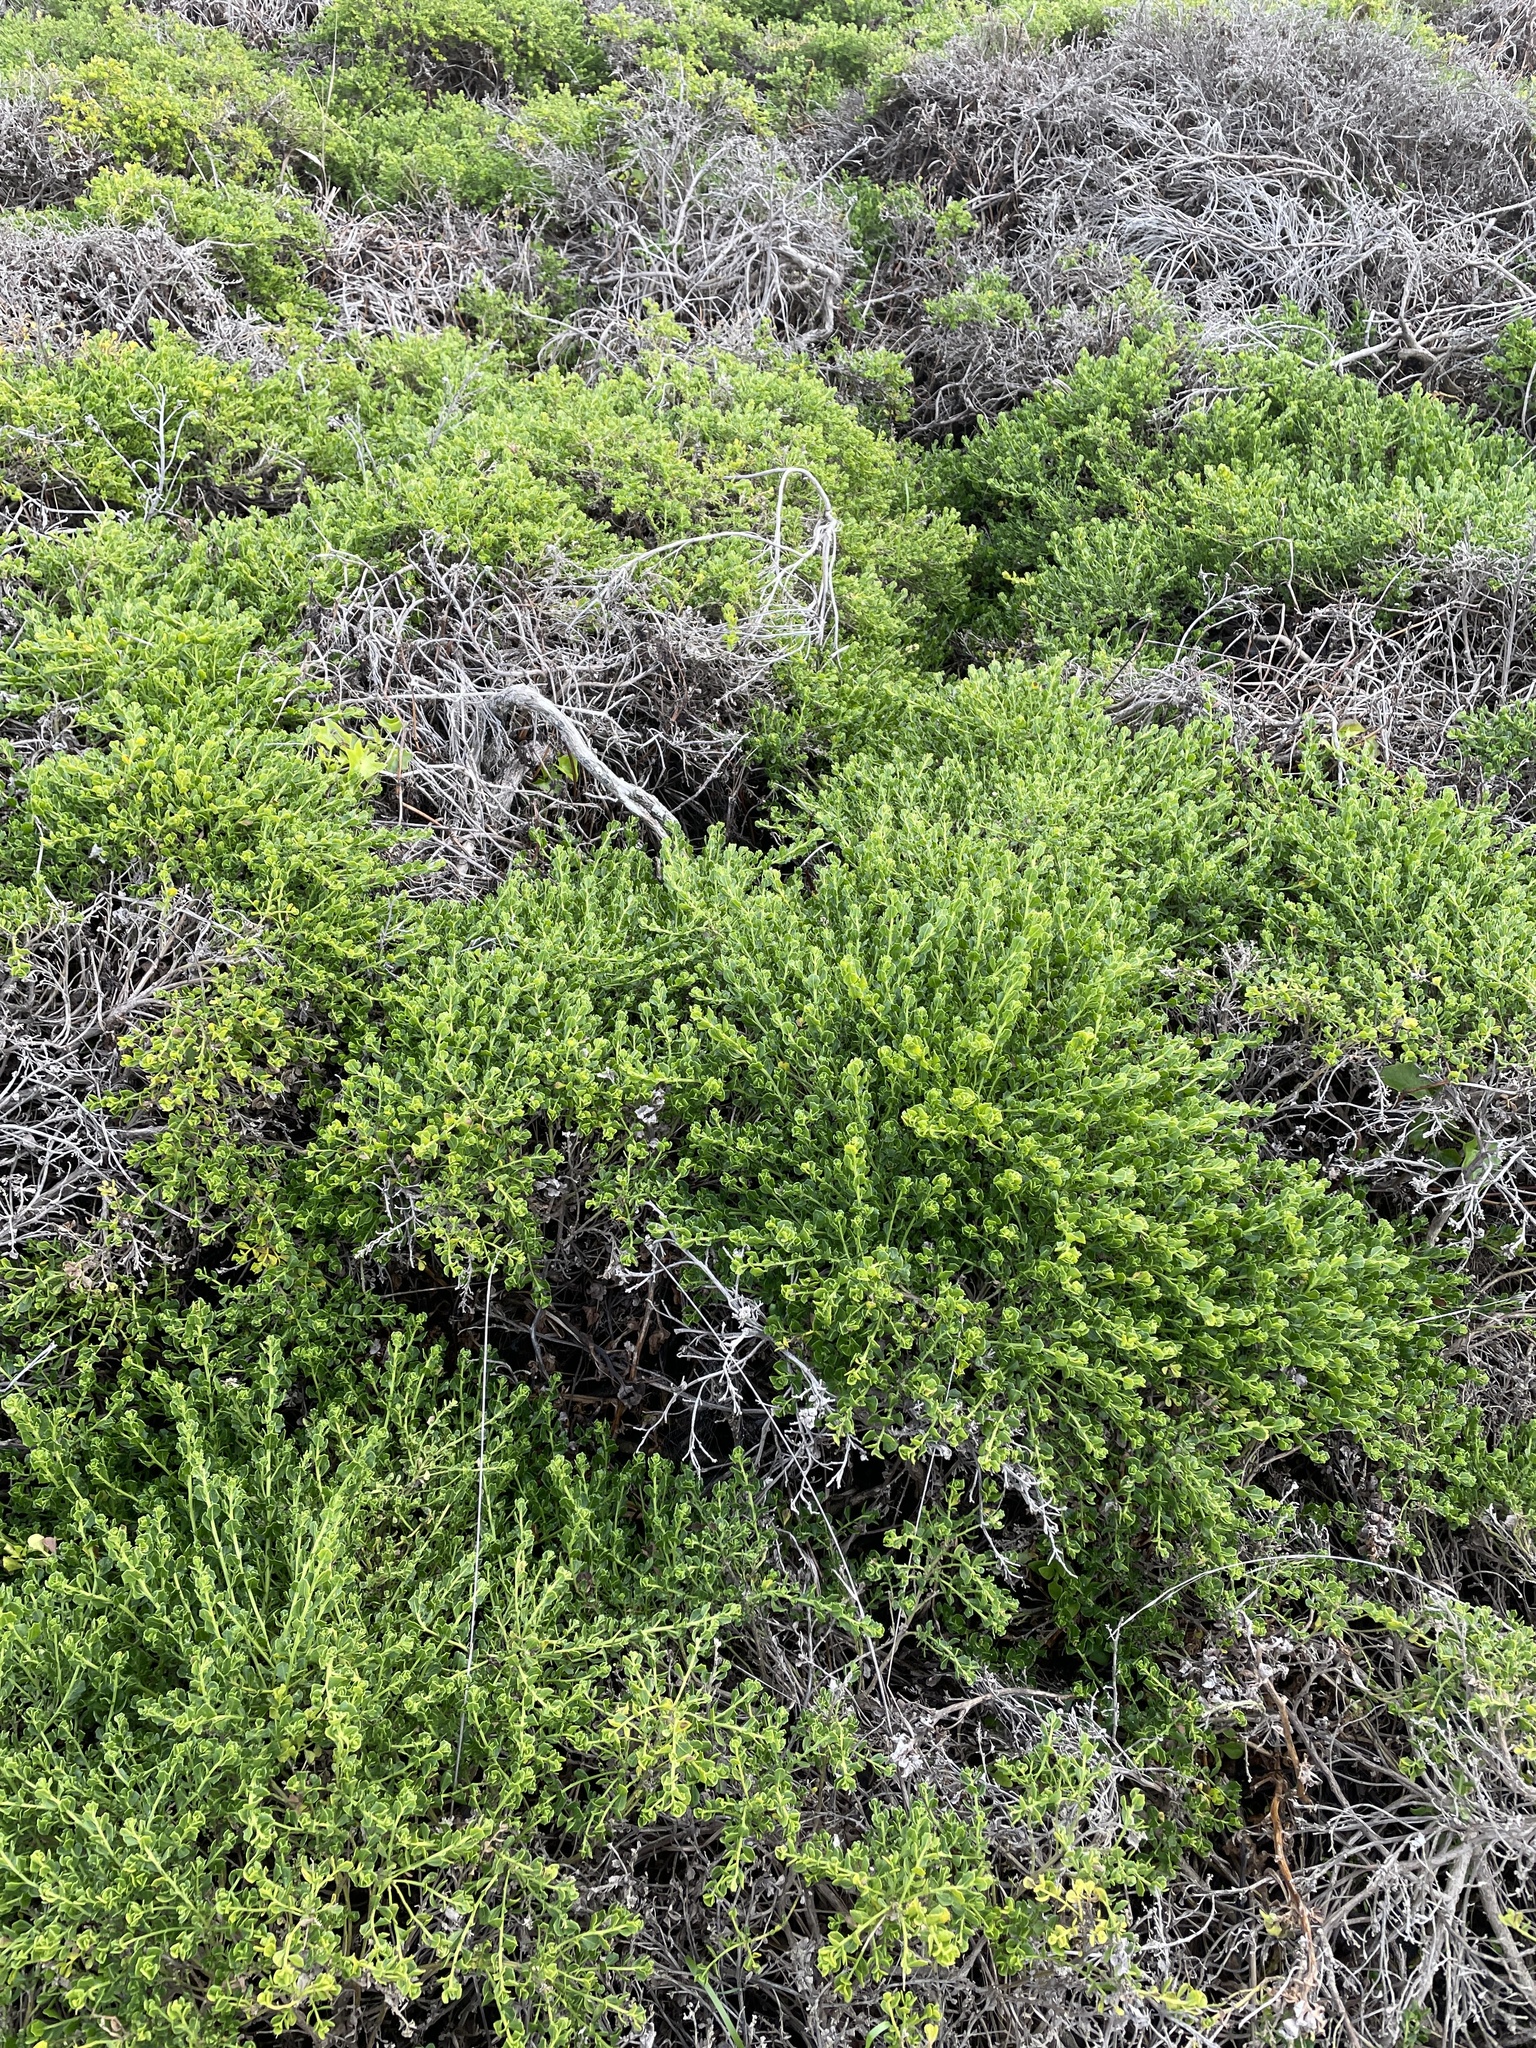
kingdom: Plantae
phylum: Tracheophyta
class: Magnoliopsida
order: Asterales
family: Asteraceae
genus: Baccharis
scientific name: Baccharis pilularis
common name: Coyotebrush
